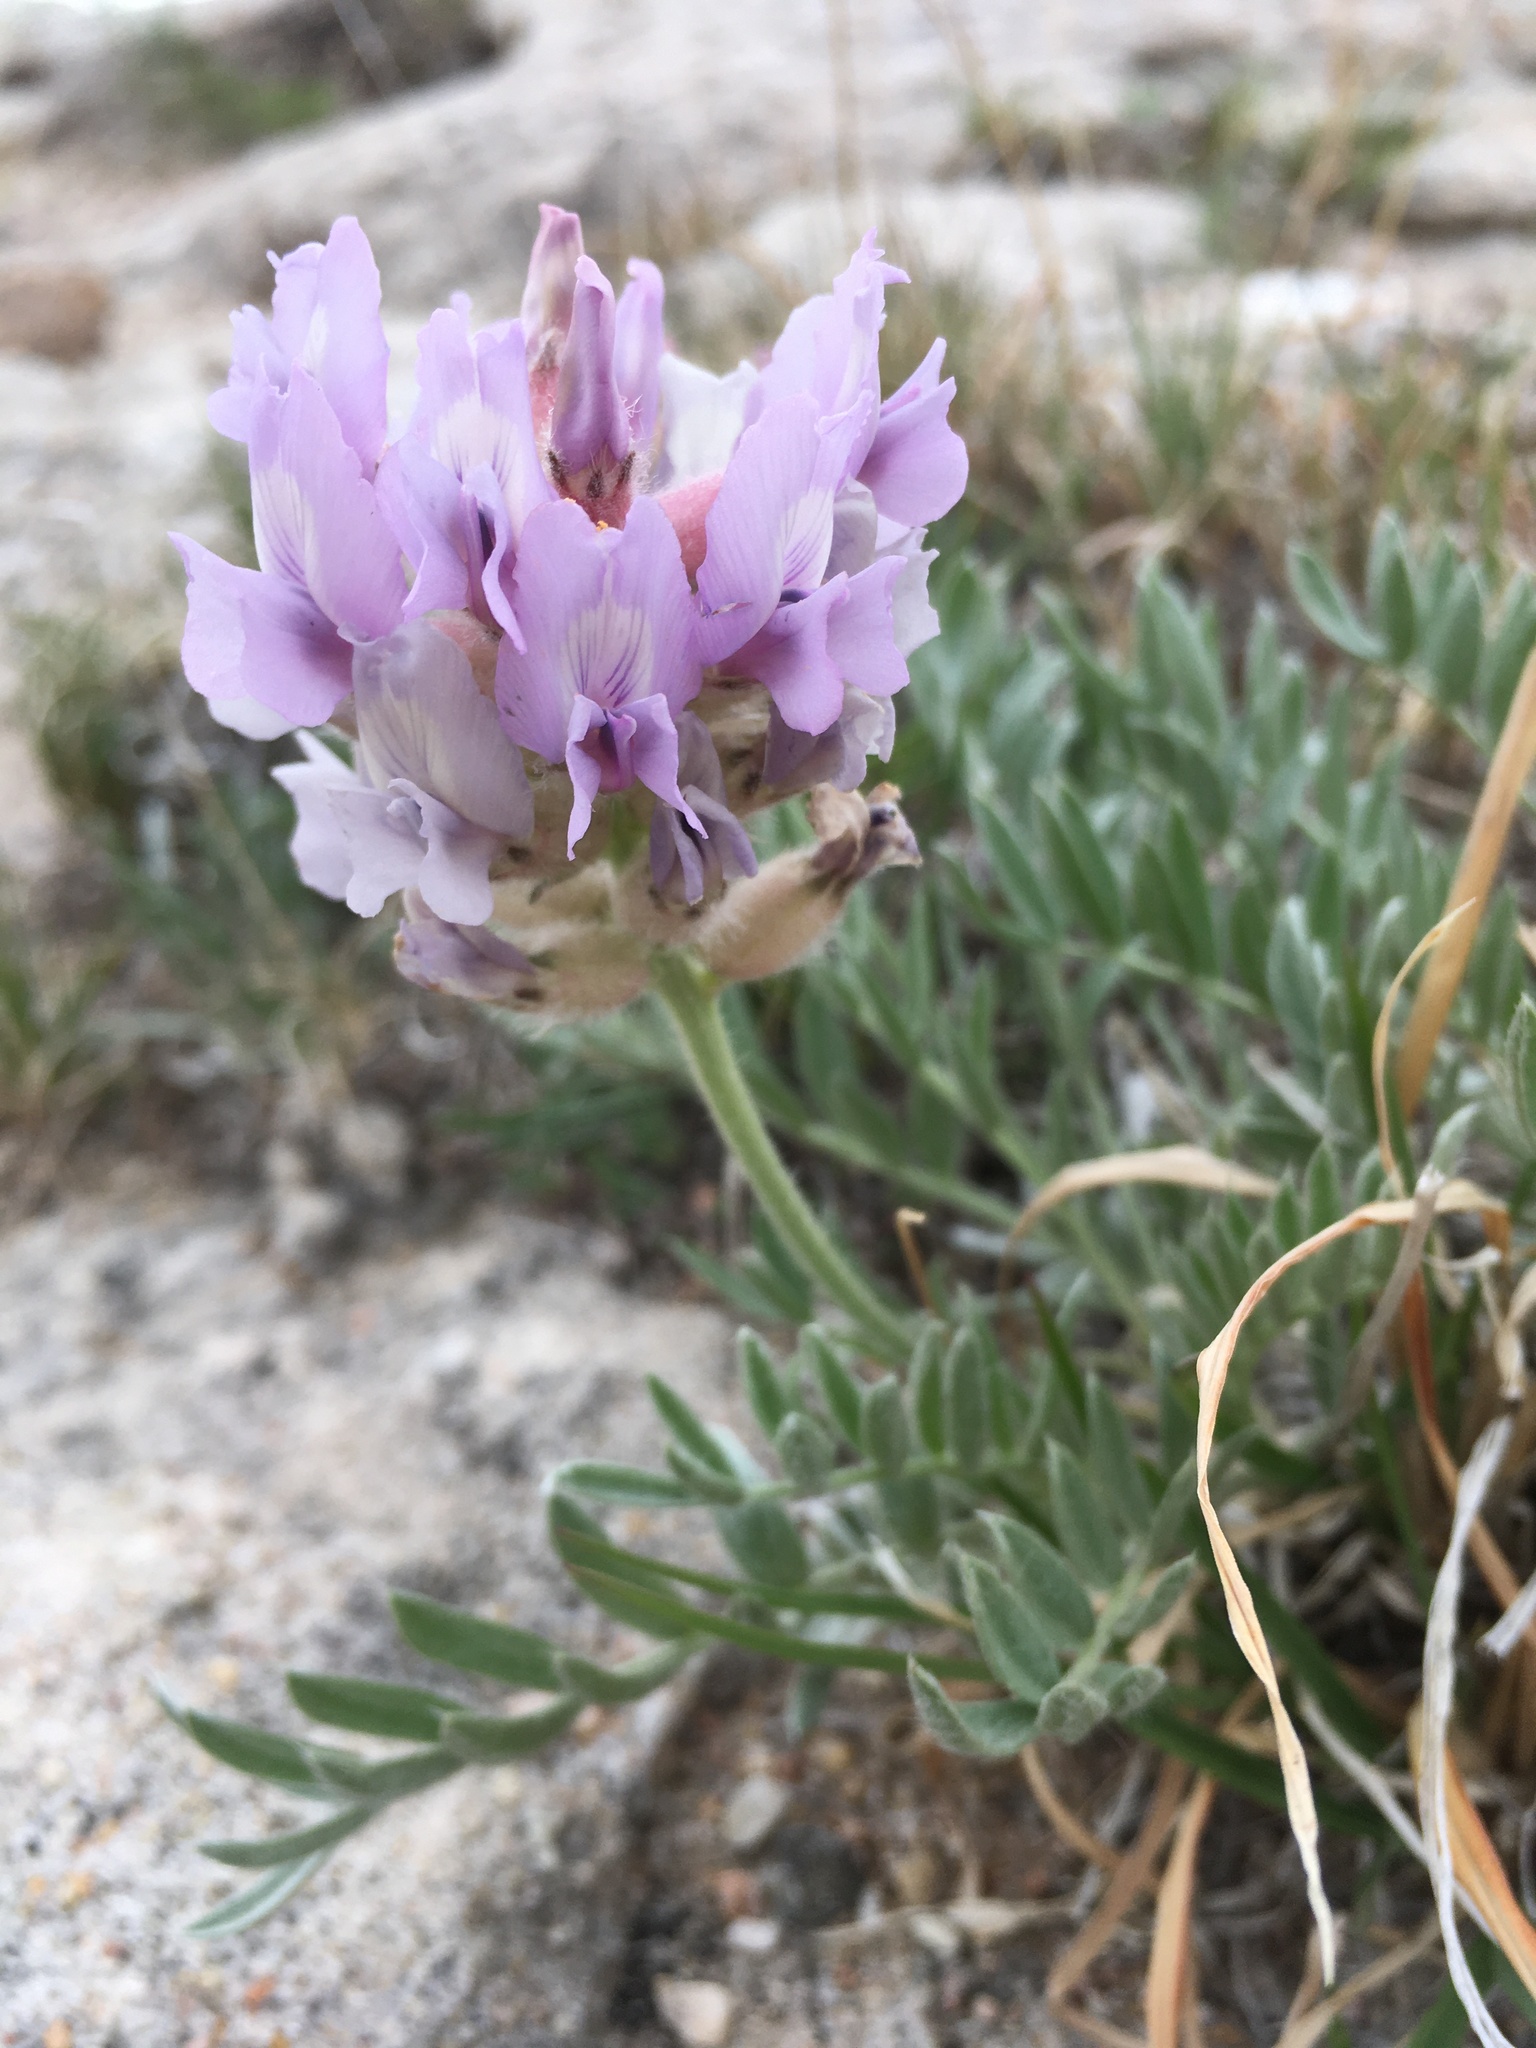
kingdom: Plantae
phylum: Tracheophyta
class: Magnoliopsida
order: Fabales
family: Fabaceae
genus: Oxytropis
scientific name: Oxytropis lambertii
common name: Purple locoweed
